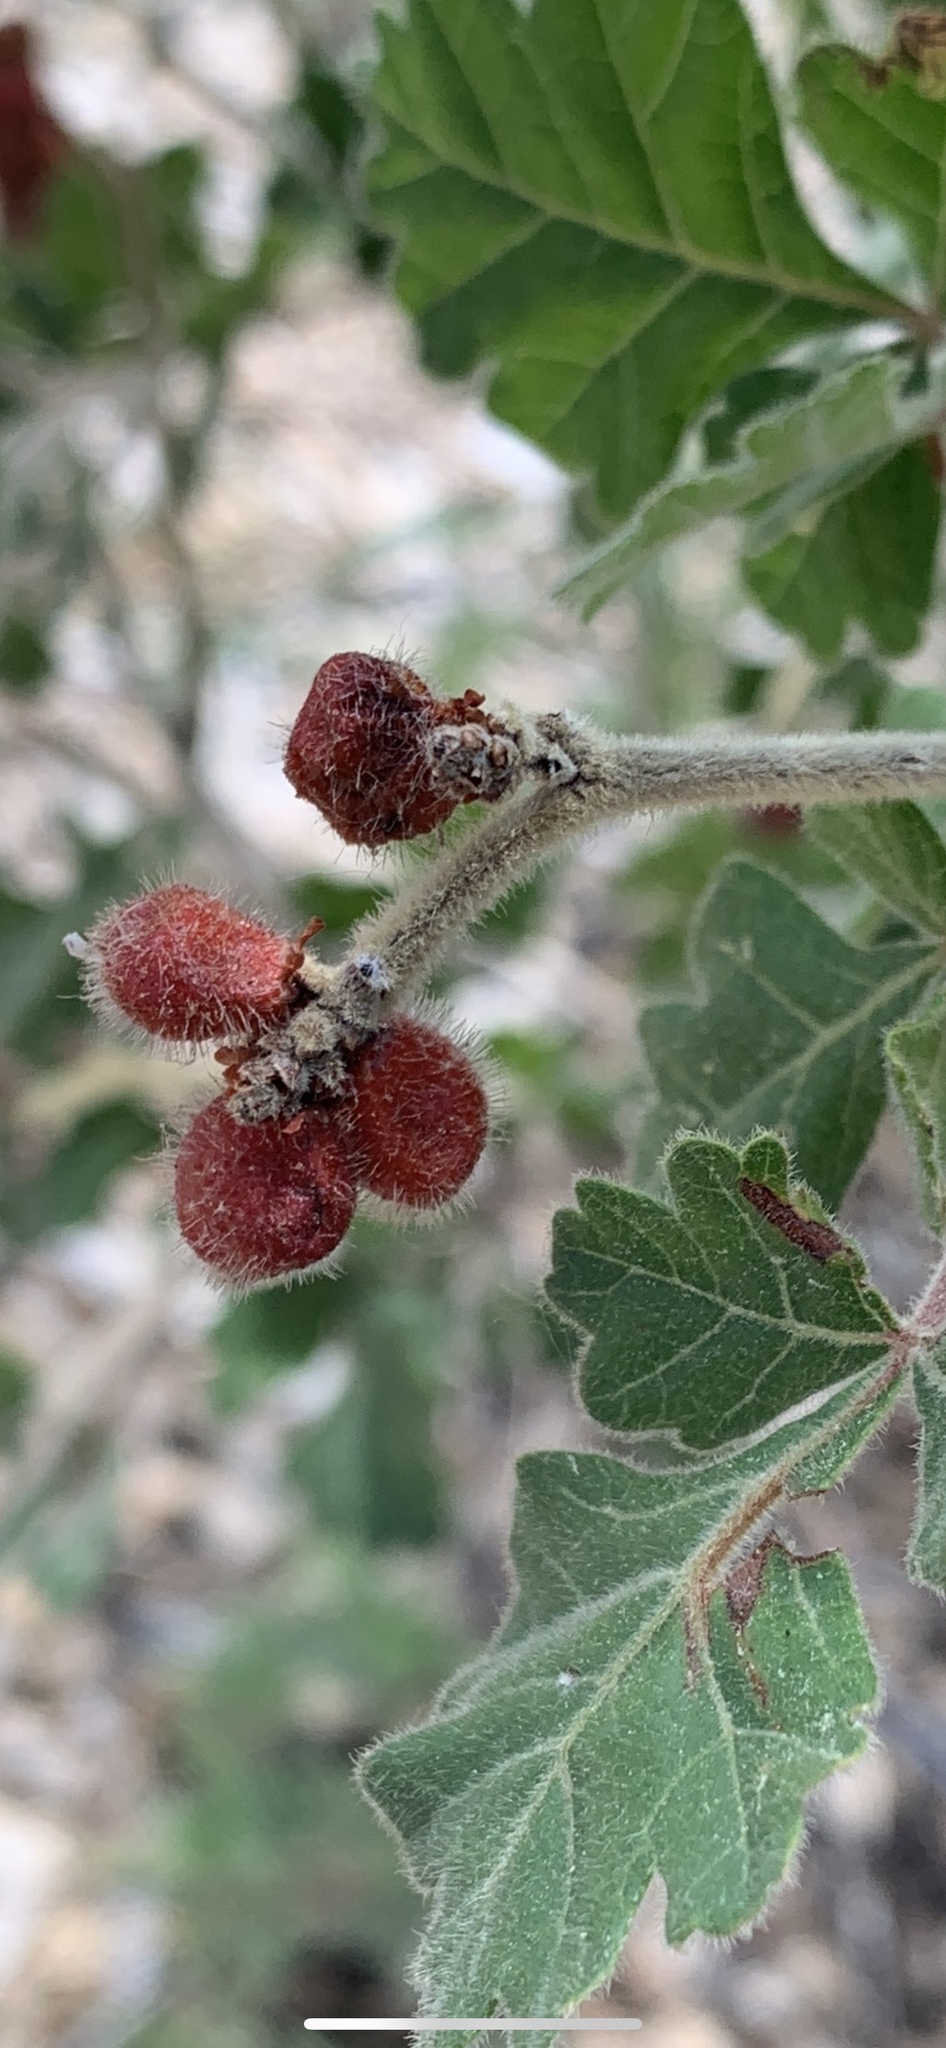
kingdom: Plantae
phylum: Tracheophyta
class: Magnoliopsida
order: Sapindales
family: Anacardiaceae
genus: Rhus
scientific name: Rhus aromatica
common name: Aromatic sumac
